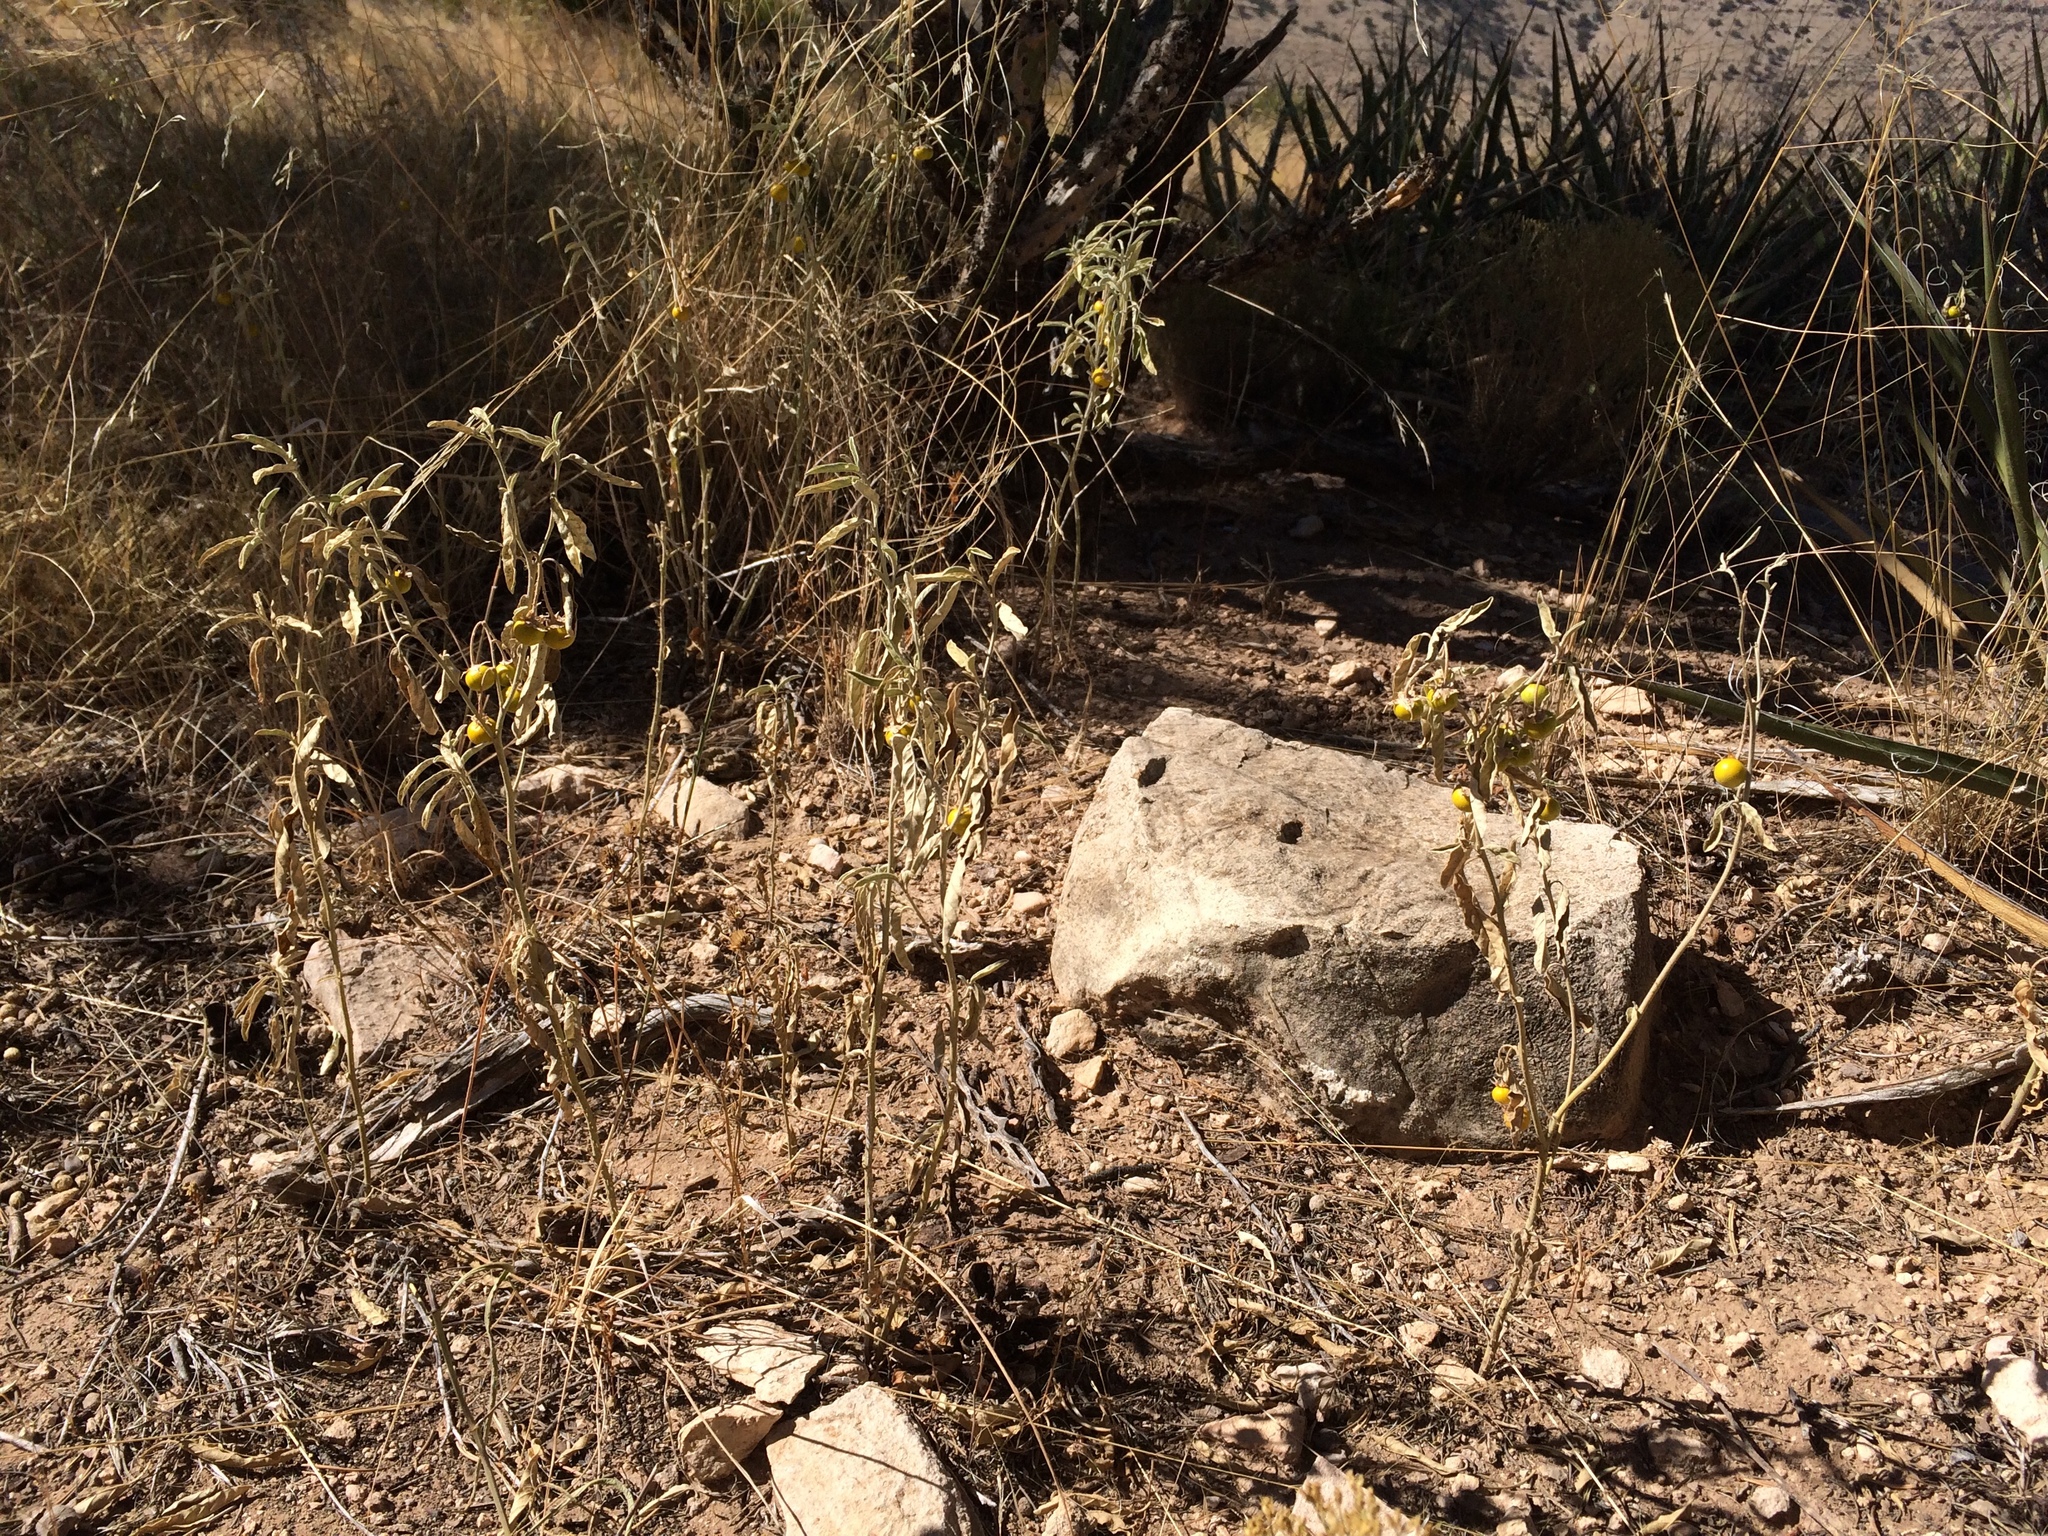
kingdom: Plantae
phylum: Tracheophyta
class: Magnoliopsida
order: Solanales
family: Solanaceae
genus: Solanum
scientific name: Solanum elaeagnifolium
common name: Silverleaf nightshade
